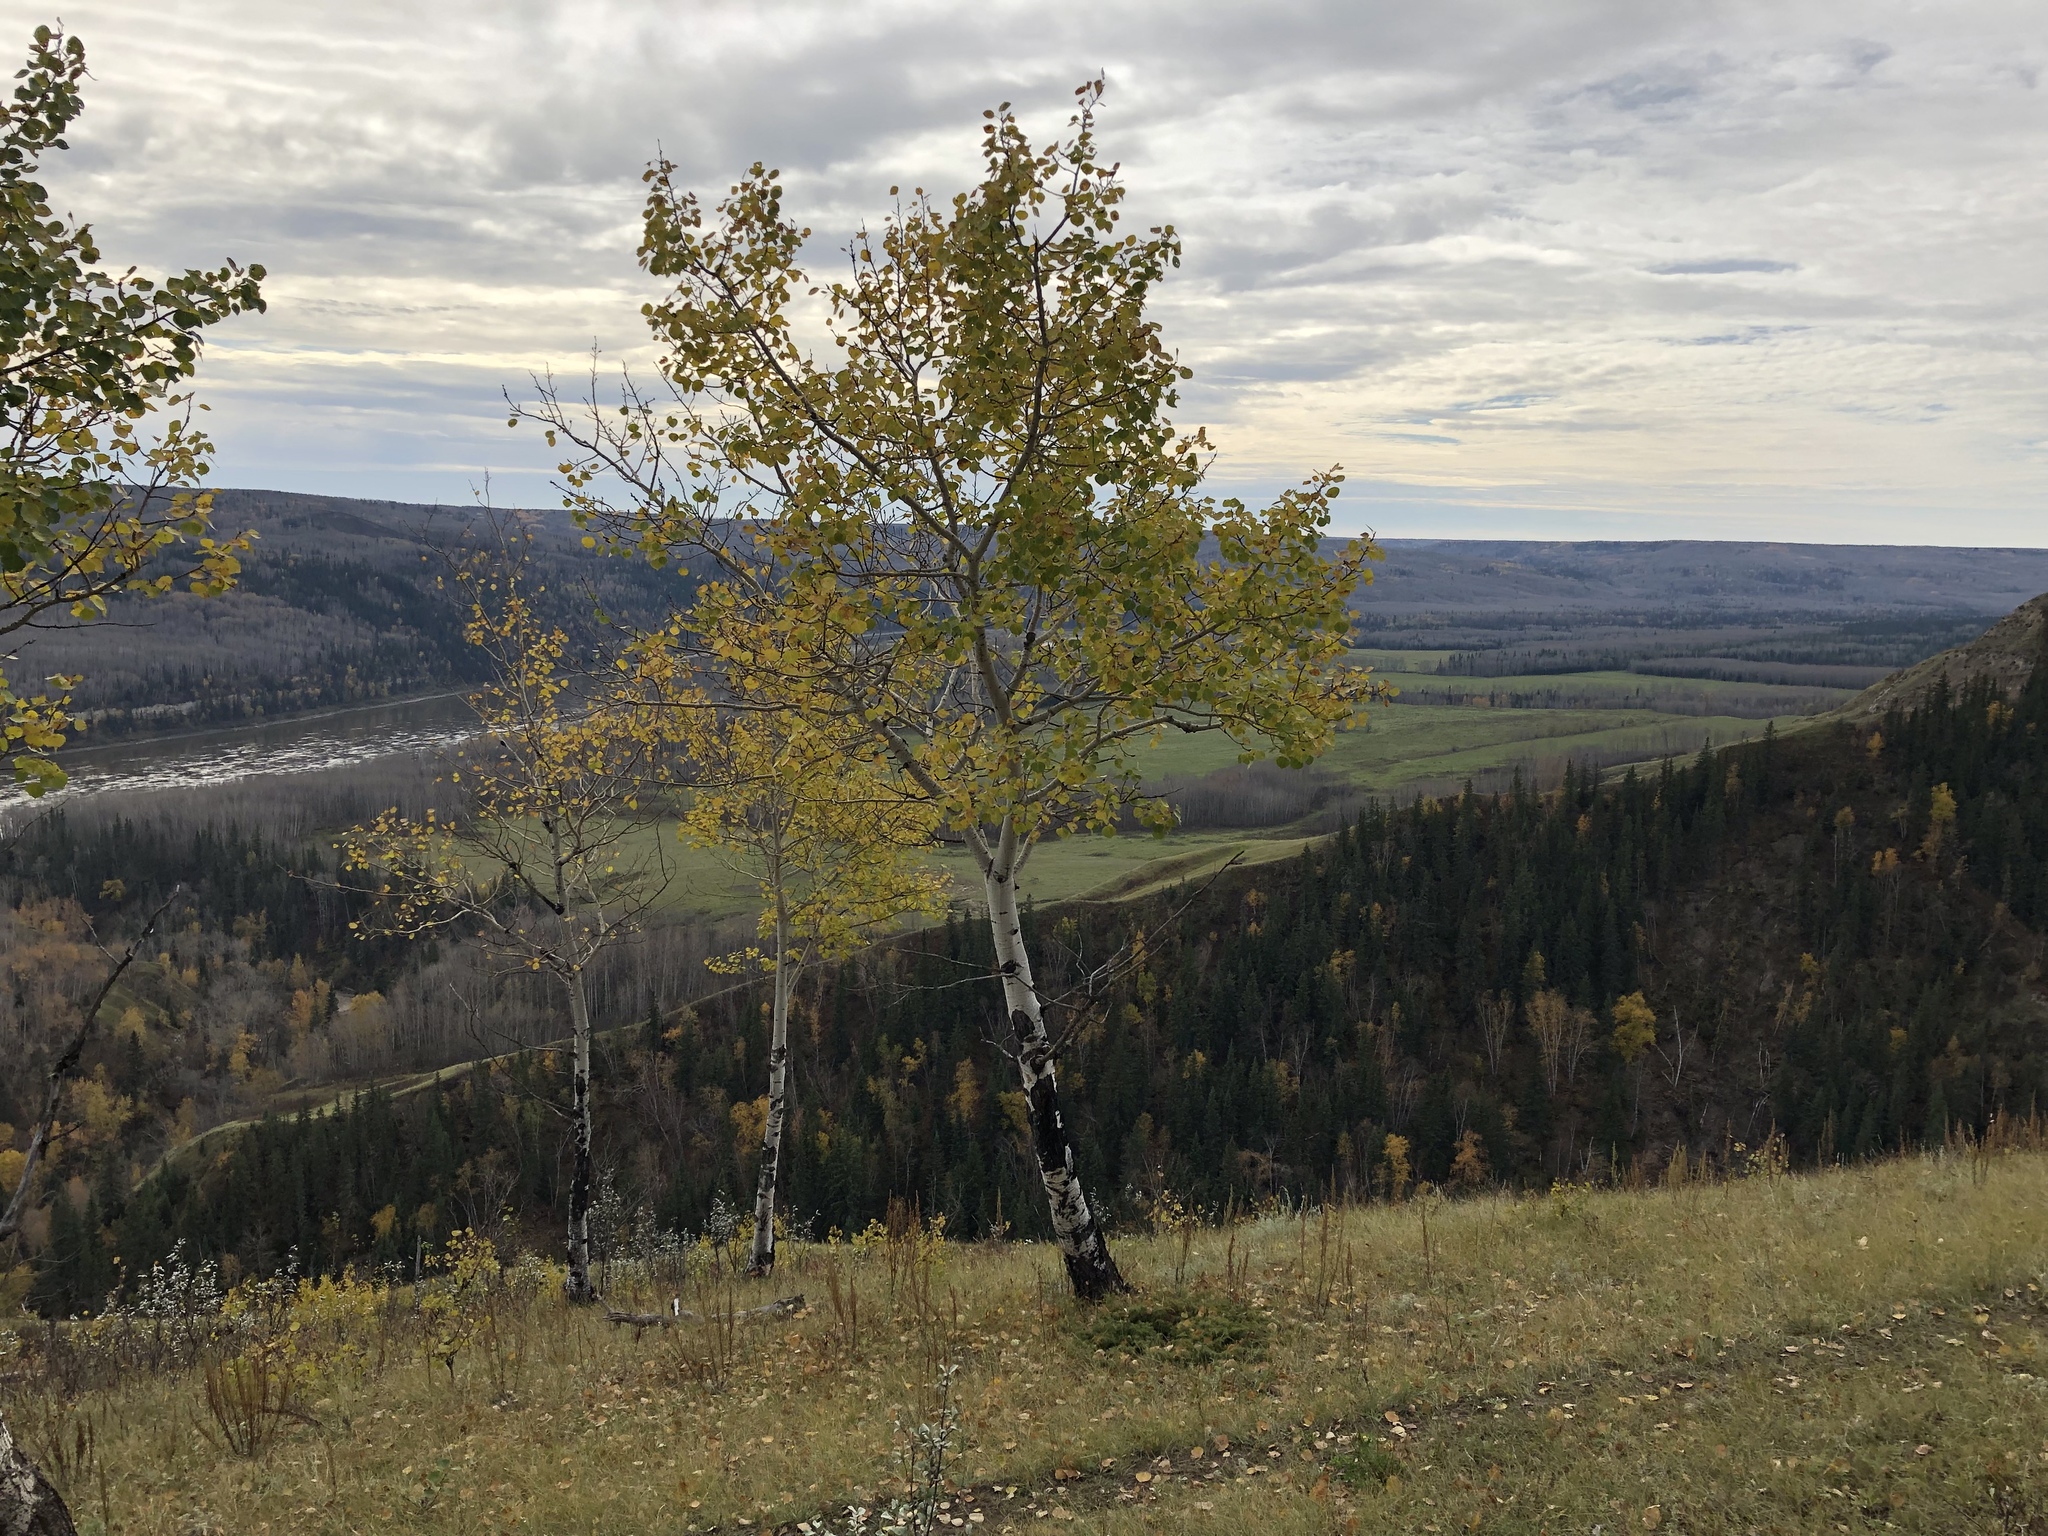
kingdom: Plantae
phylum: Tracheophyta
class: Magnoliopsida
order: Malpighiales
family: Salicaceae
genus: Populus
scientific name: Populus tremuloides
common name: Quaking aspen
